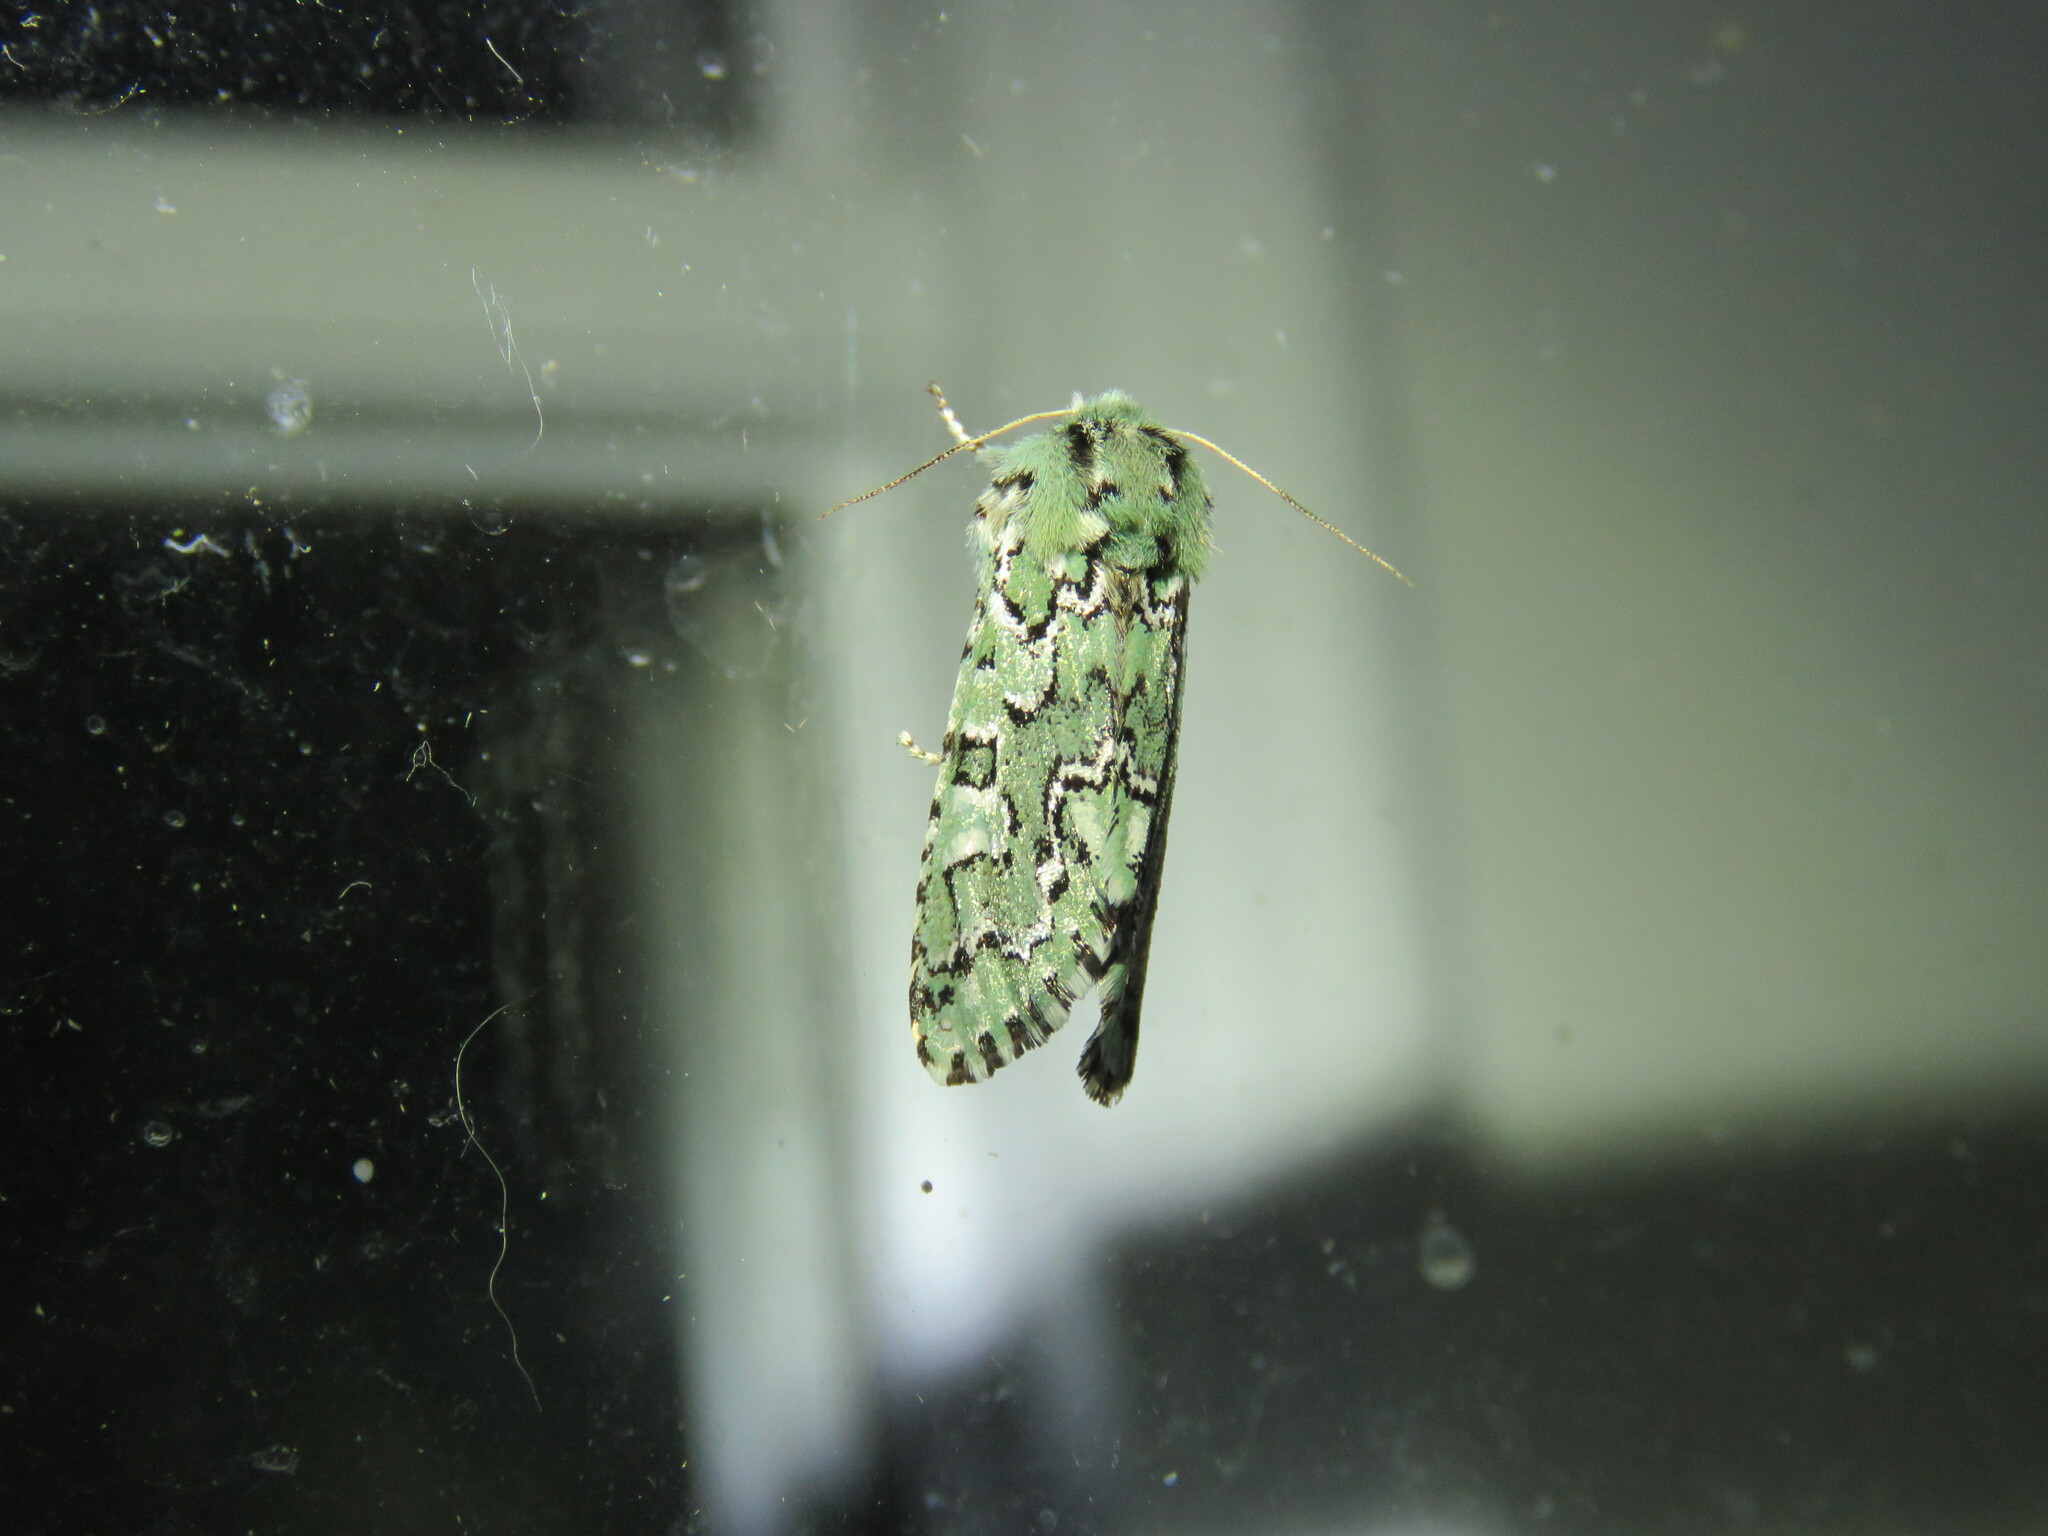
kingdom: Animalia
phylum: Arthropoda
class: Insecta
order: Lepidoptera
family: Noctuidae
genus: Feralia
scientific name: Feralia jocosa
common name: Joker
